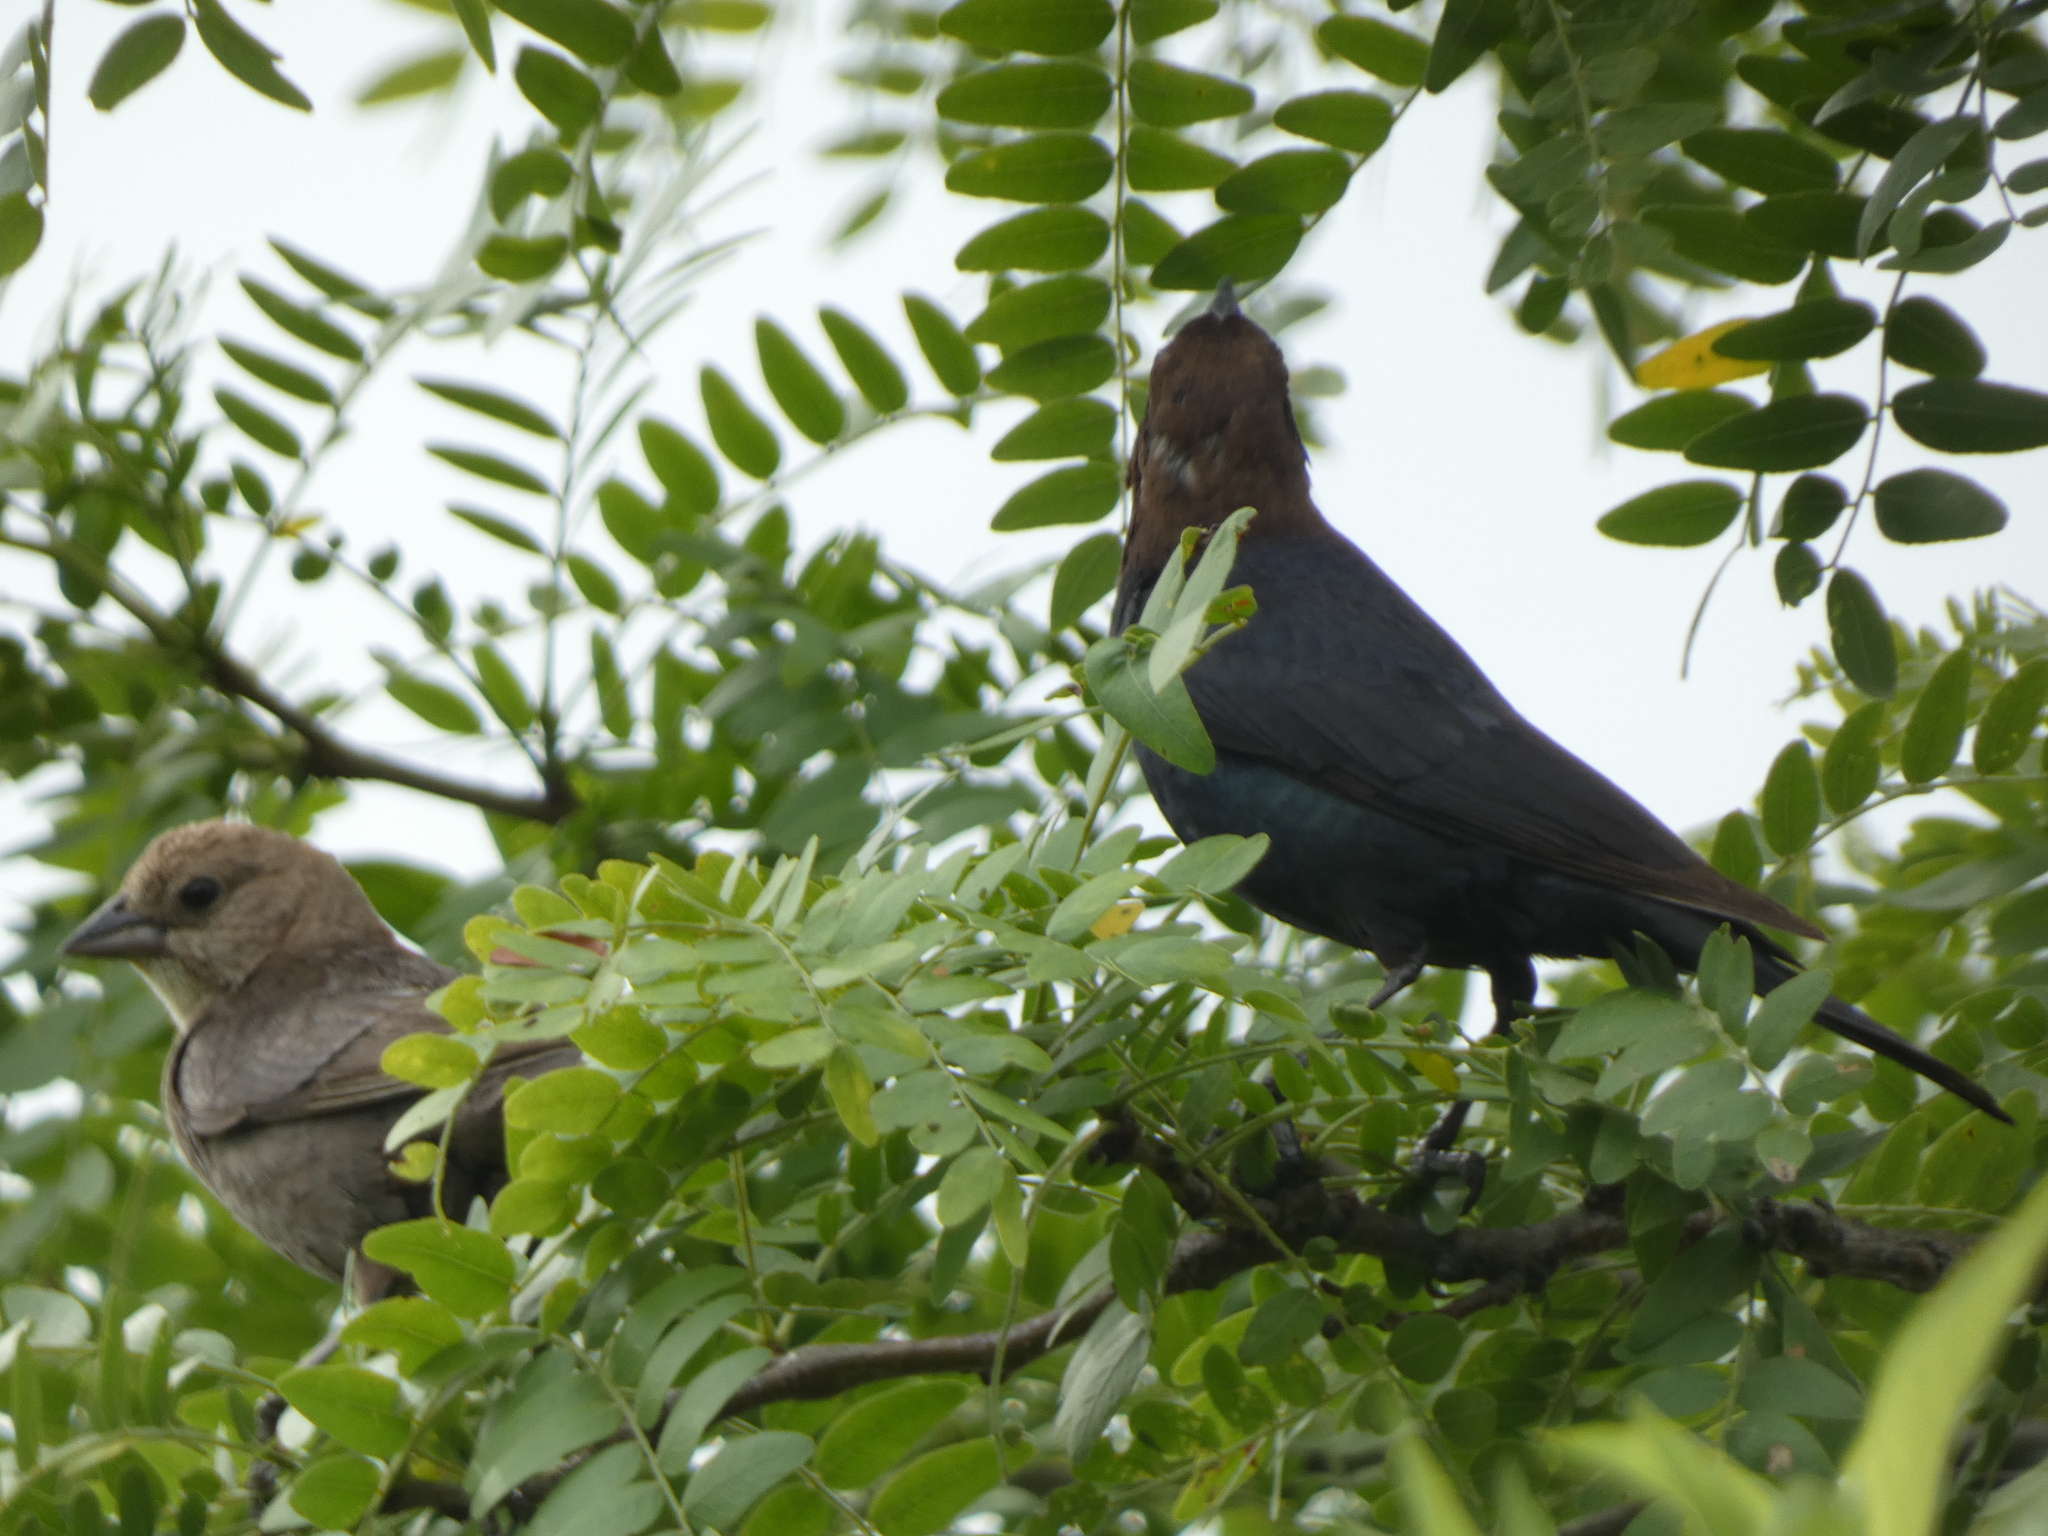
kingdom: Animalia
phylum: Chordata
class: Aves
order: Passeriformes
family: Icteridae
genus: Molothrus
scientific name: Molothrus ater
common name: Brown-headed cowbird
